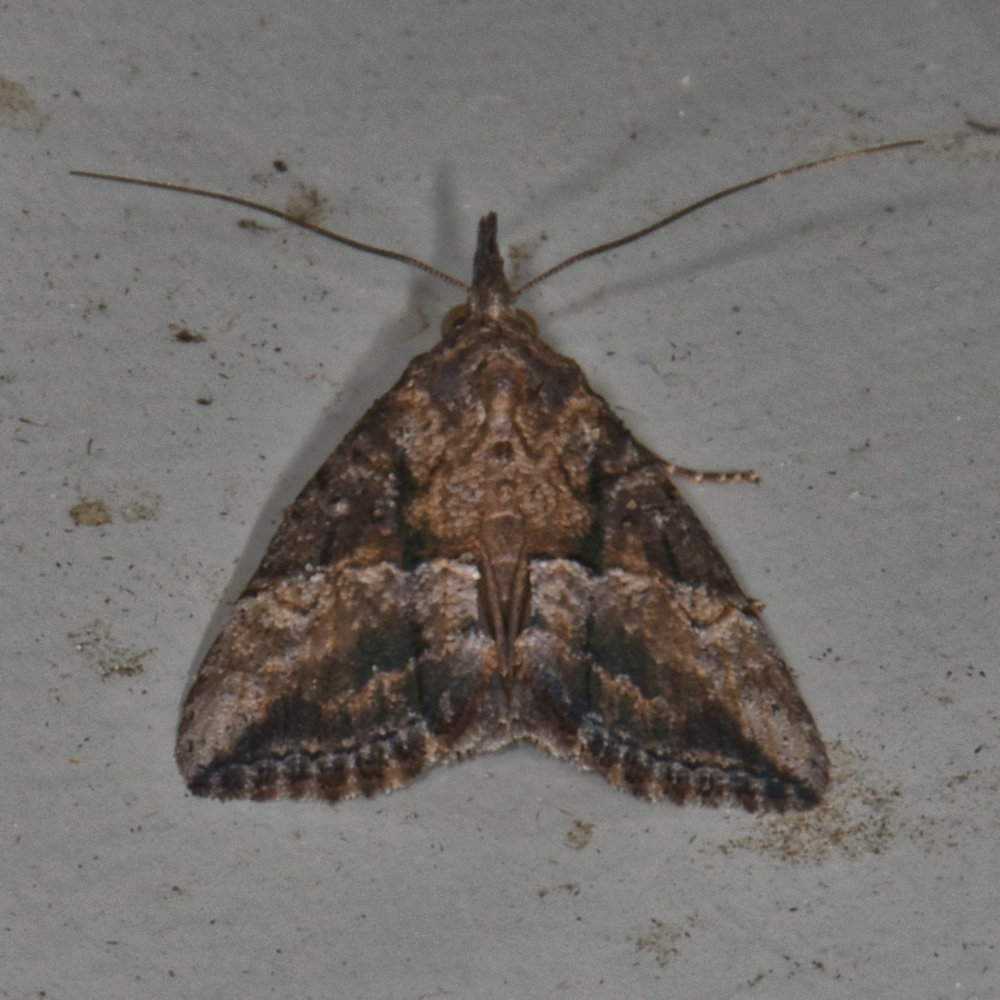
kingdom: Animalia
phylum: Arthropoda
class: Insecta
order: Lepidoptera
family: Erebidae
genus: Hypena
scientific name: Hypena scabra
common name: Green cloverworm
